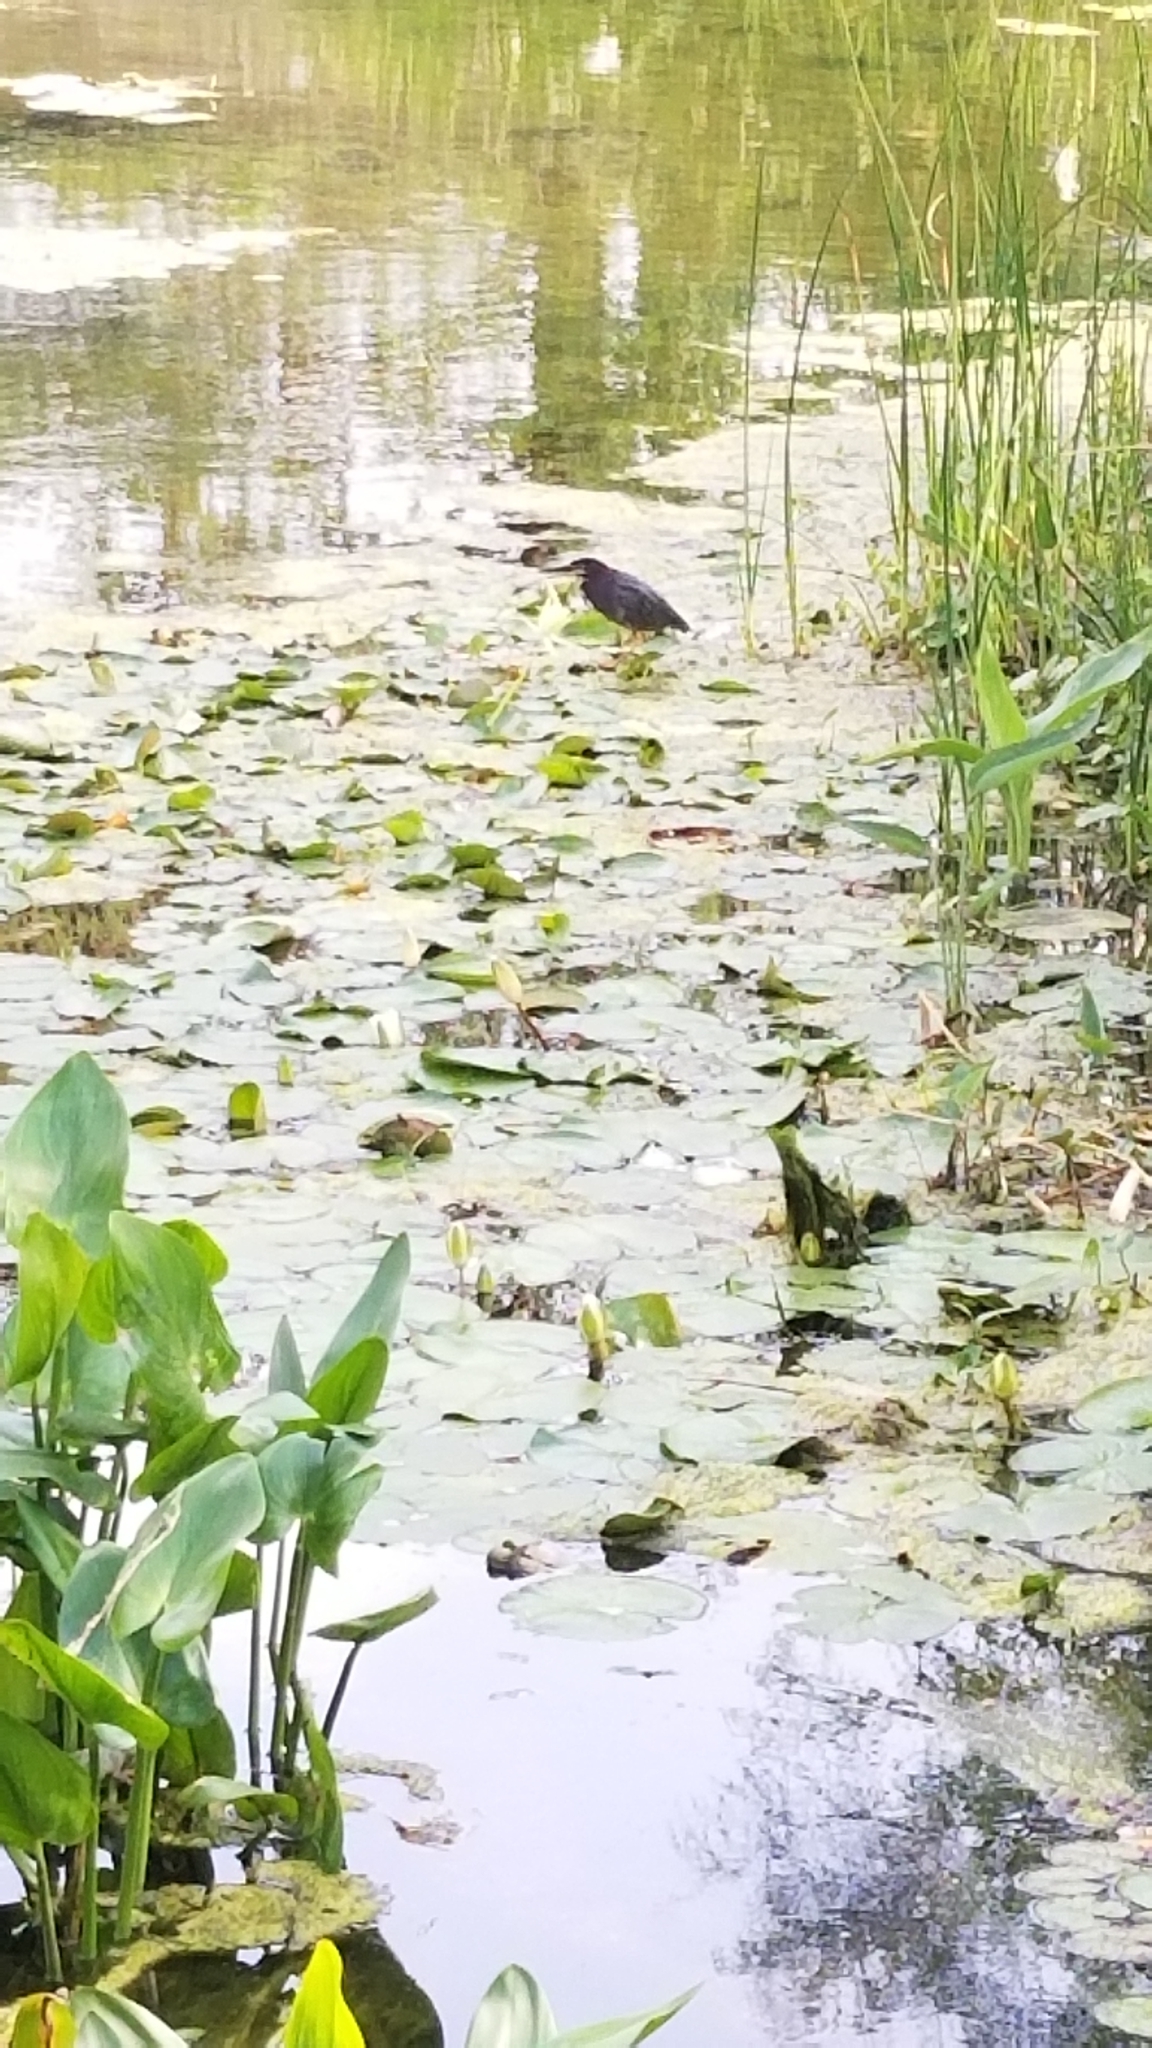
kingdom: Animalia
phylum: Chordata
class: Aves
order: Pelecaniformes
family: Ardeidae
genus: Butorides
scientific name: Butorides virescens
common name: Green heron
